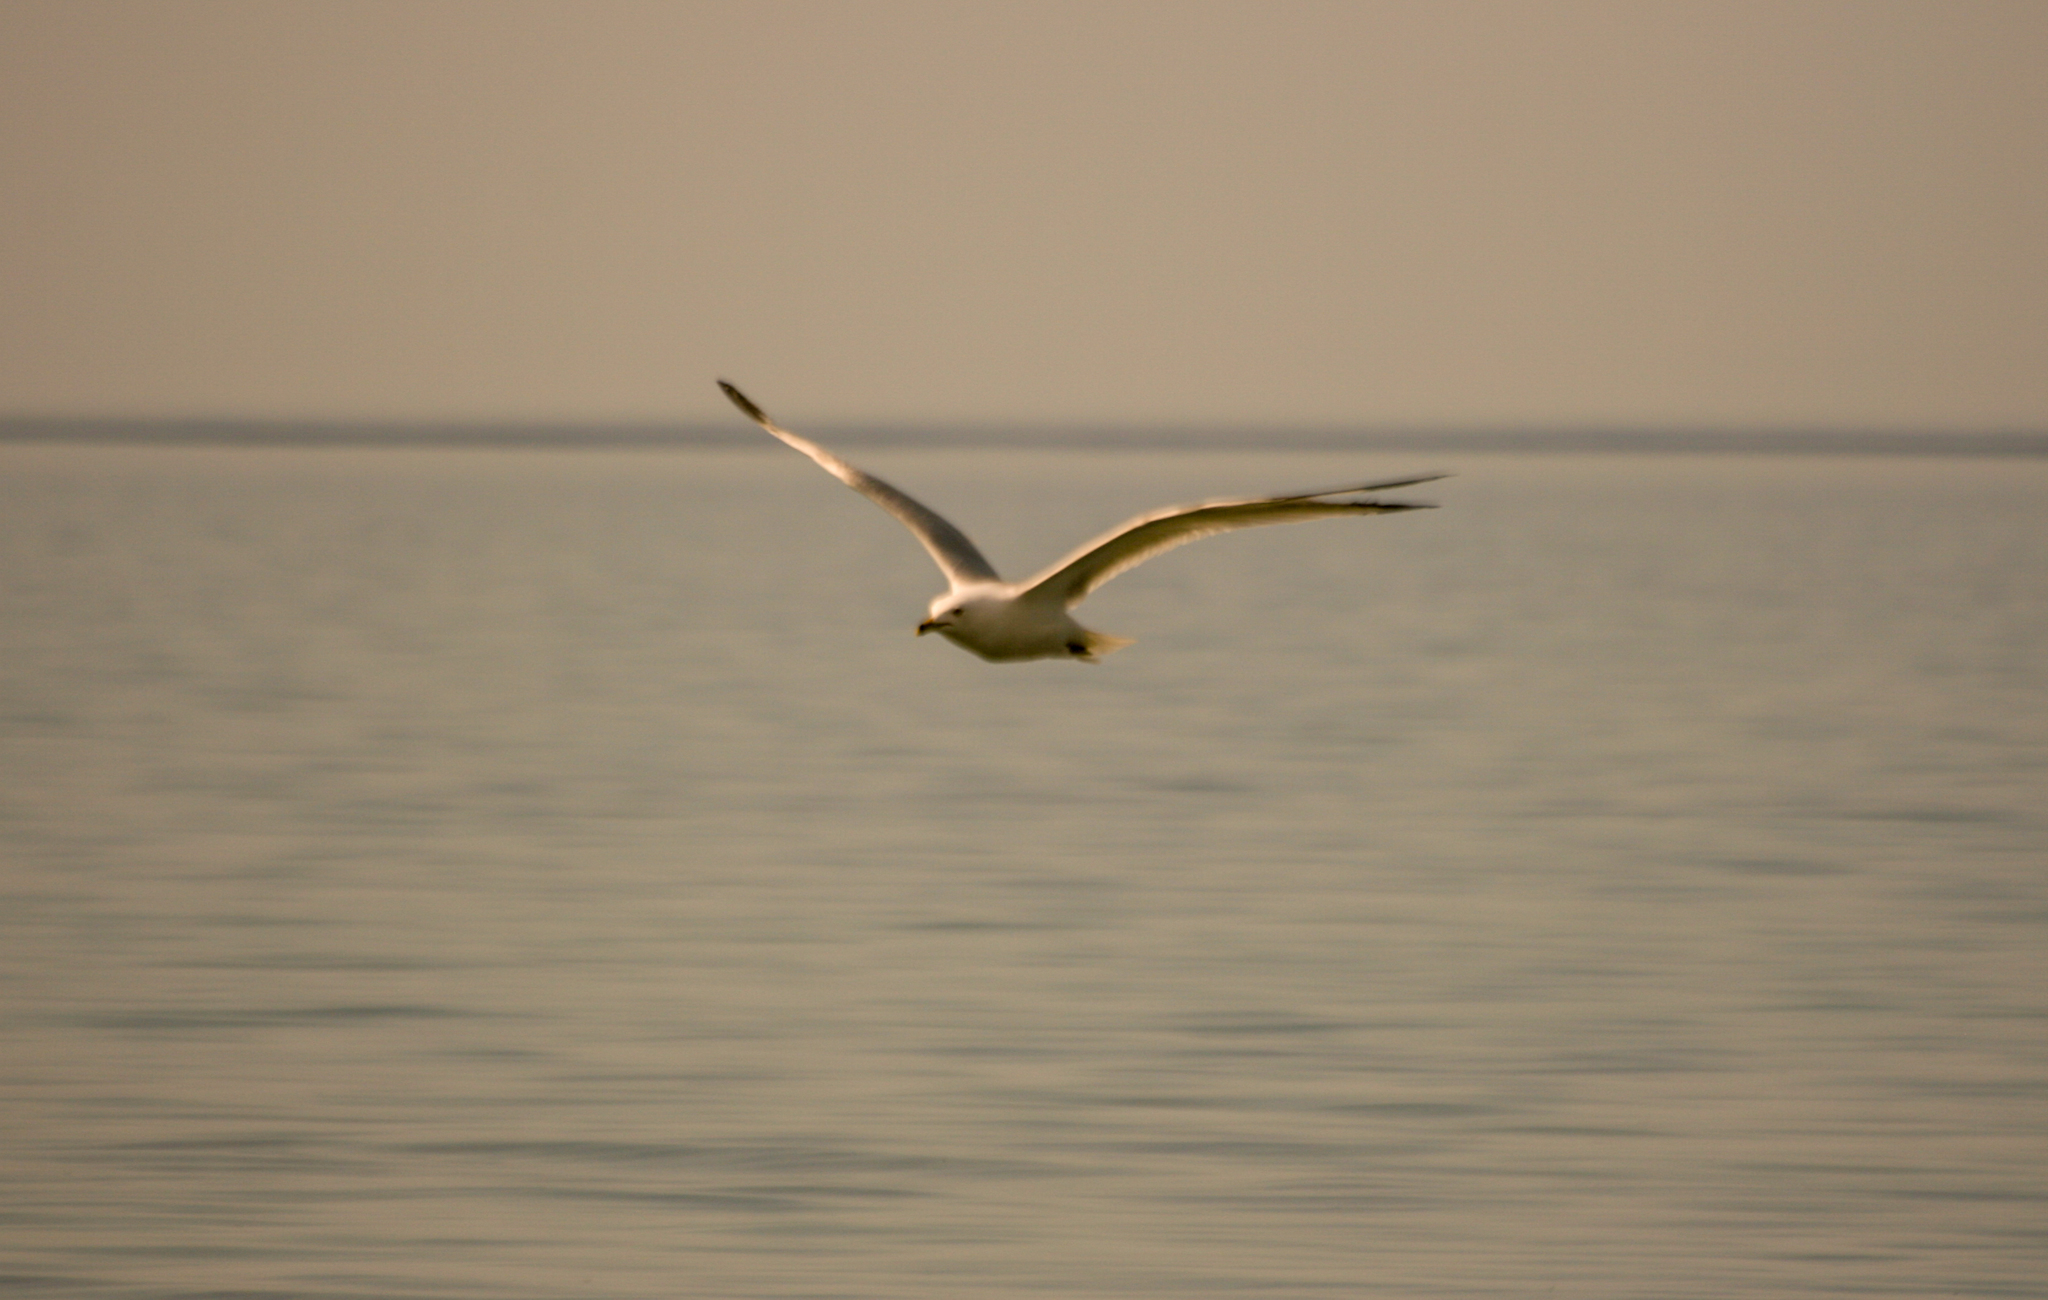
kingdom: Animalia
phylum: Chordata
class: Aves
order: Charadriiformes
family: Laridae
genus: Larus
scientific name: Larus delawarensis
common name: Ring-billed gull
